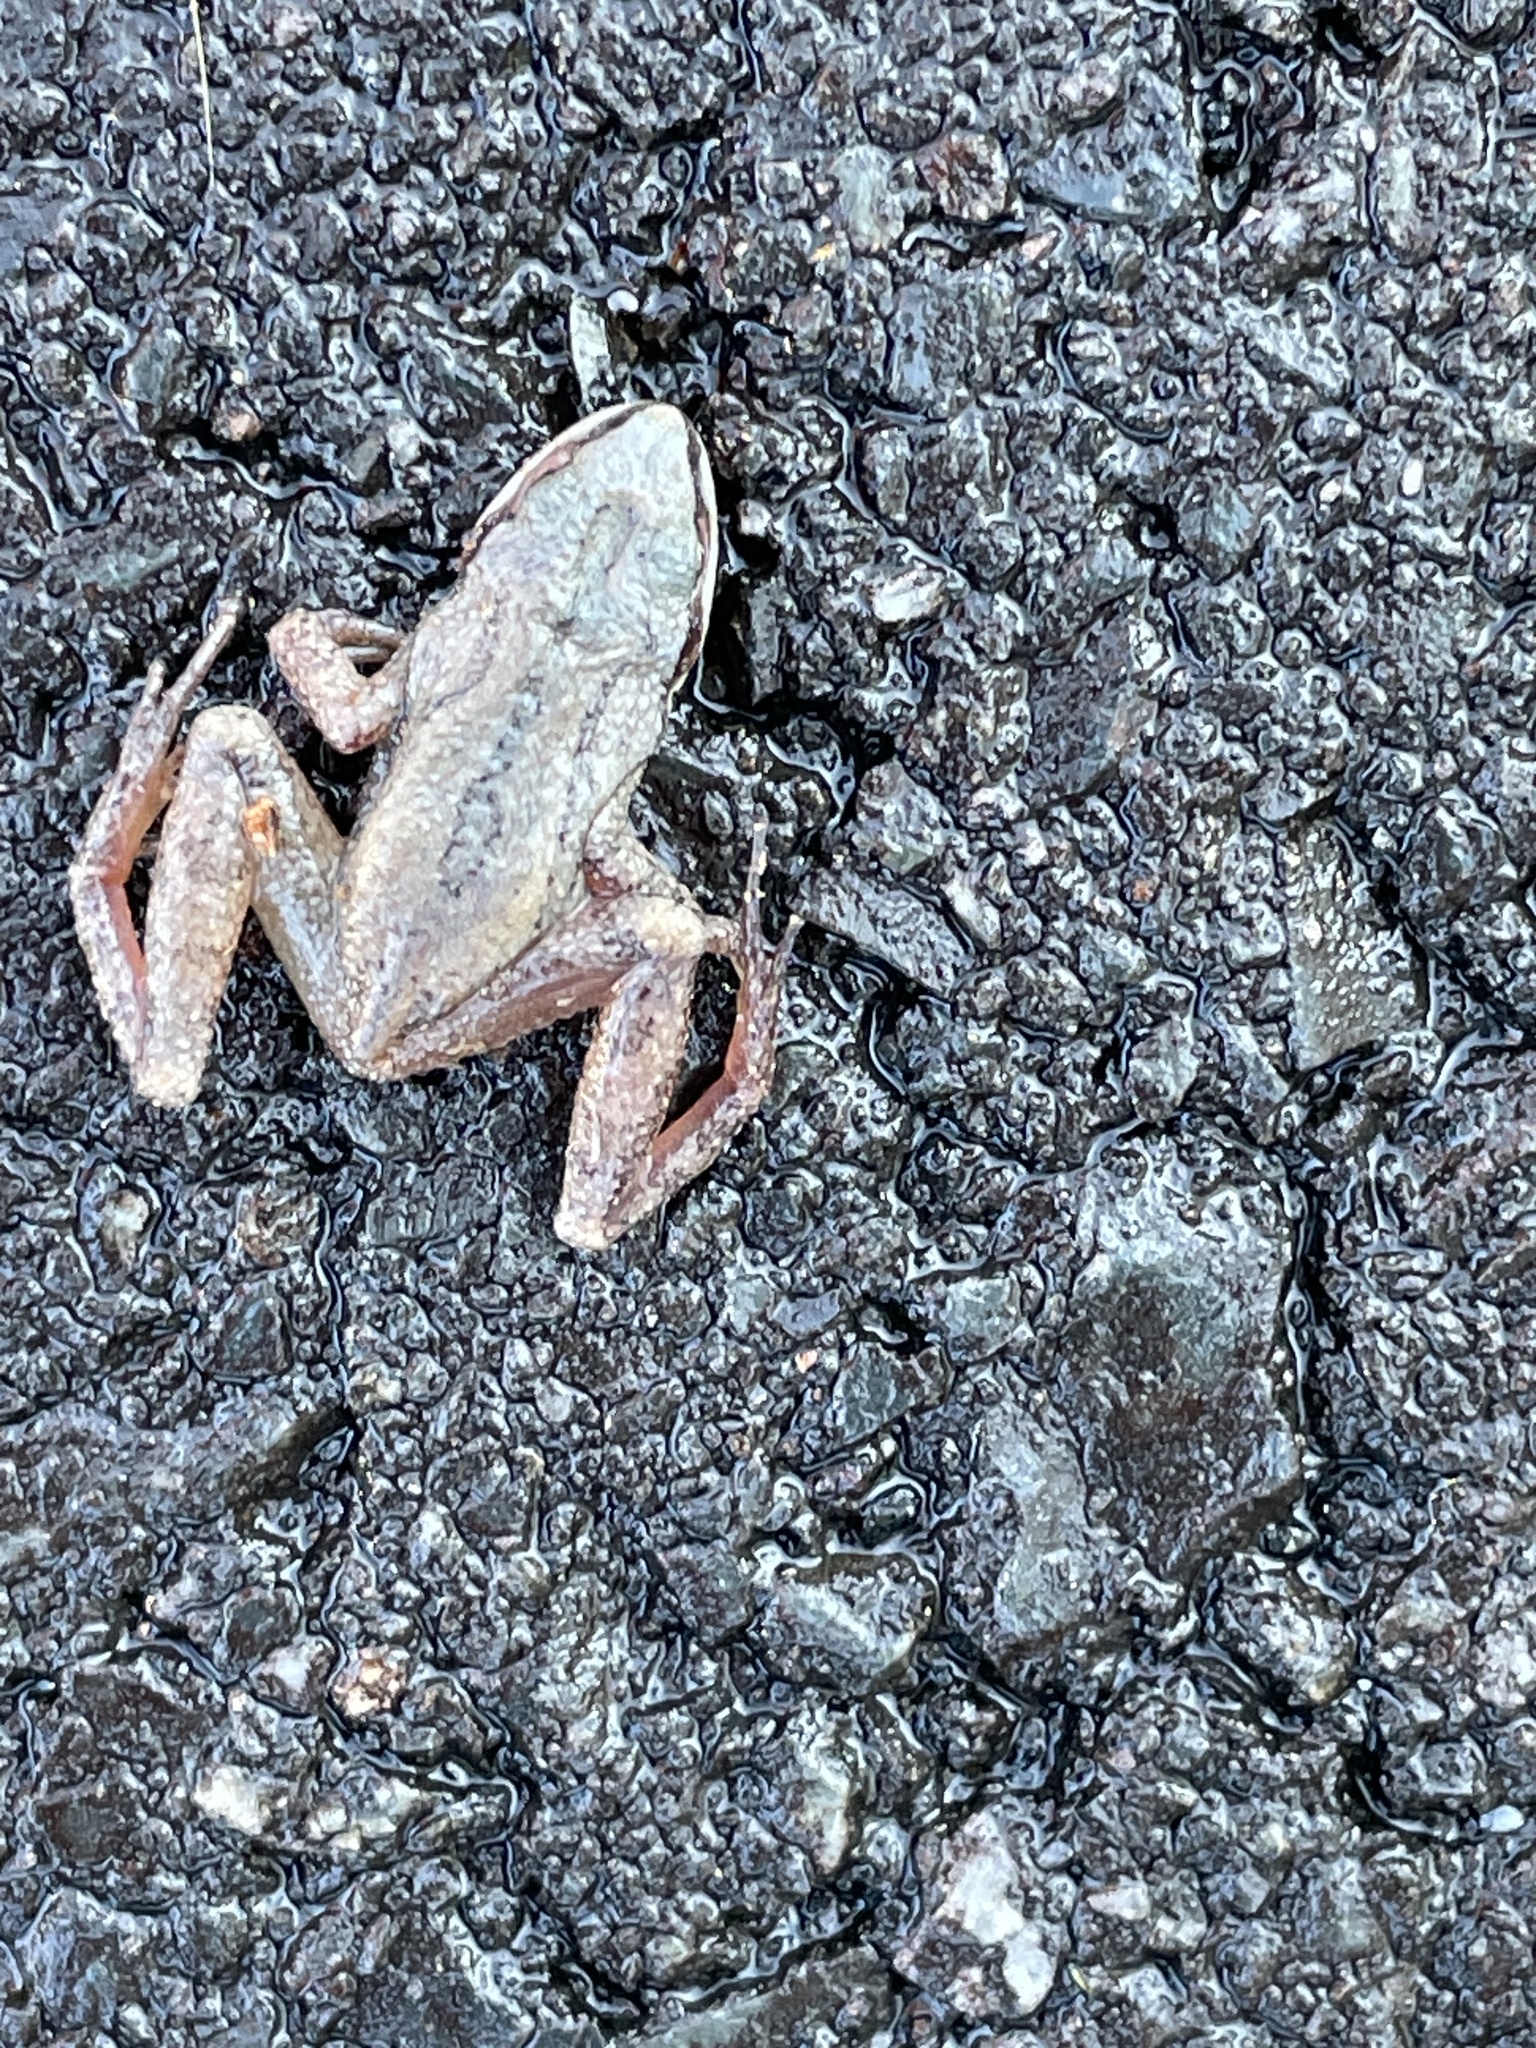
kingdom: Animalia
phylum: Chordata
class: Amphibia
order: Anura
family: Hylidae
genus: Pseudacris
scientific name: Pseudacris feriarum
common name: Upland chorus frog
